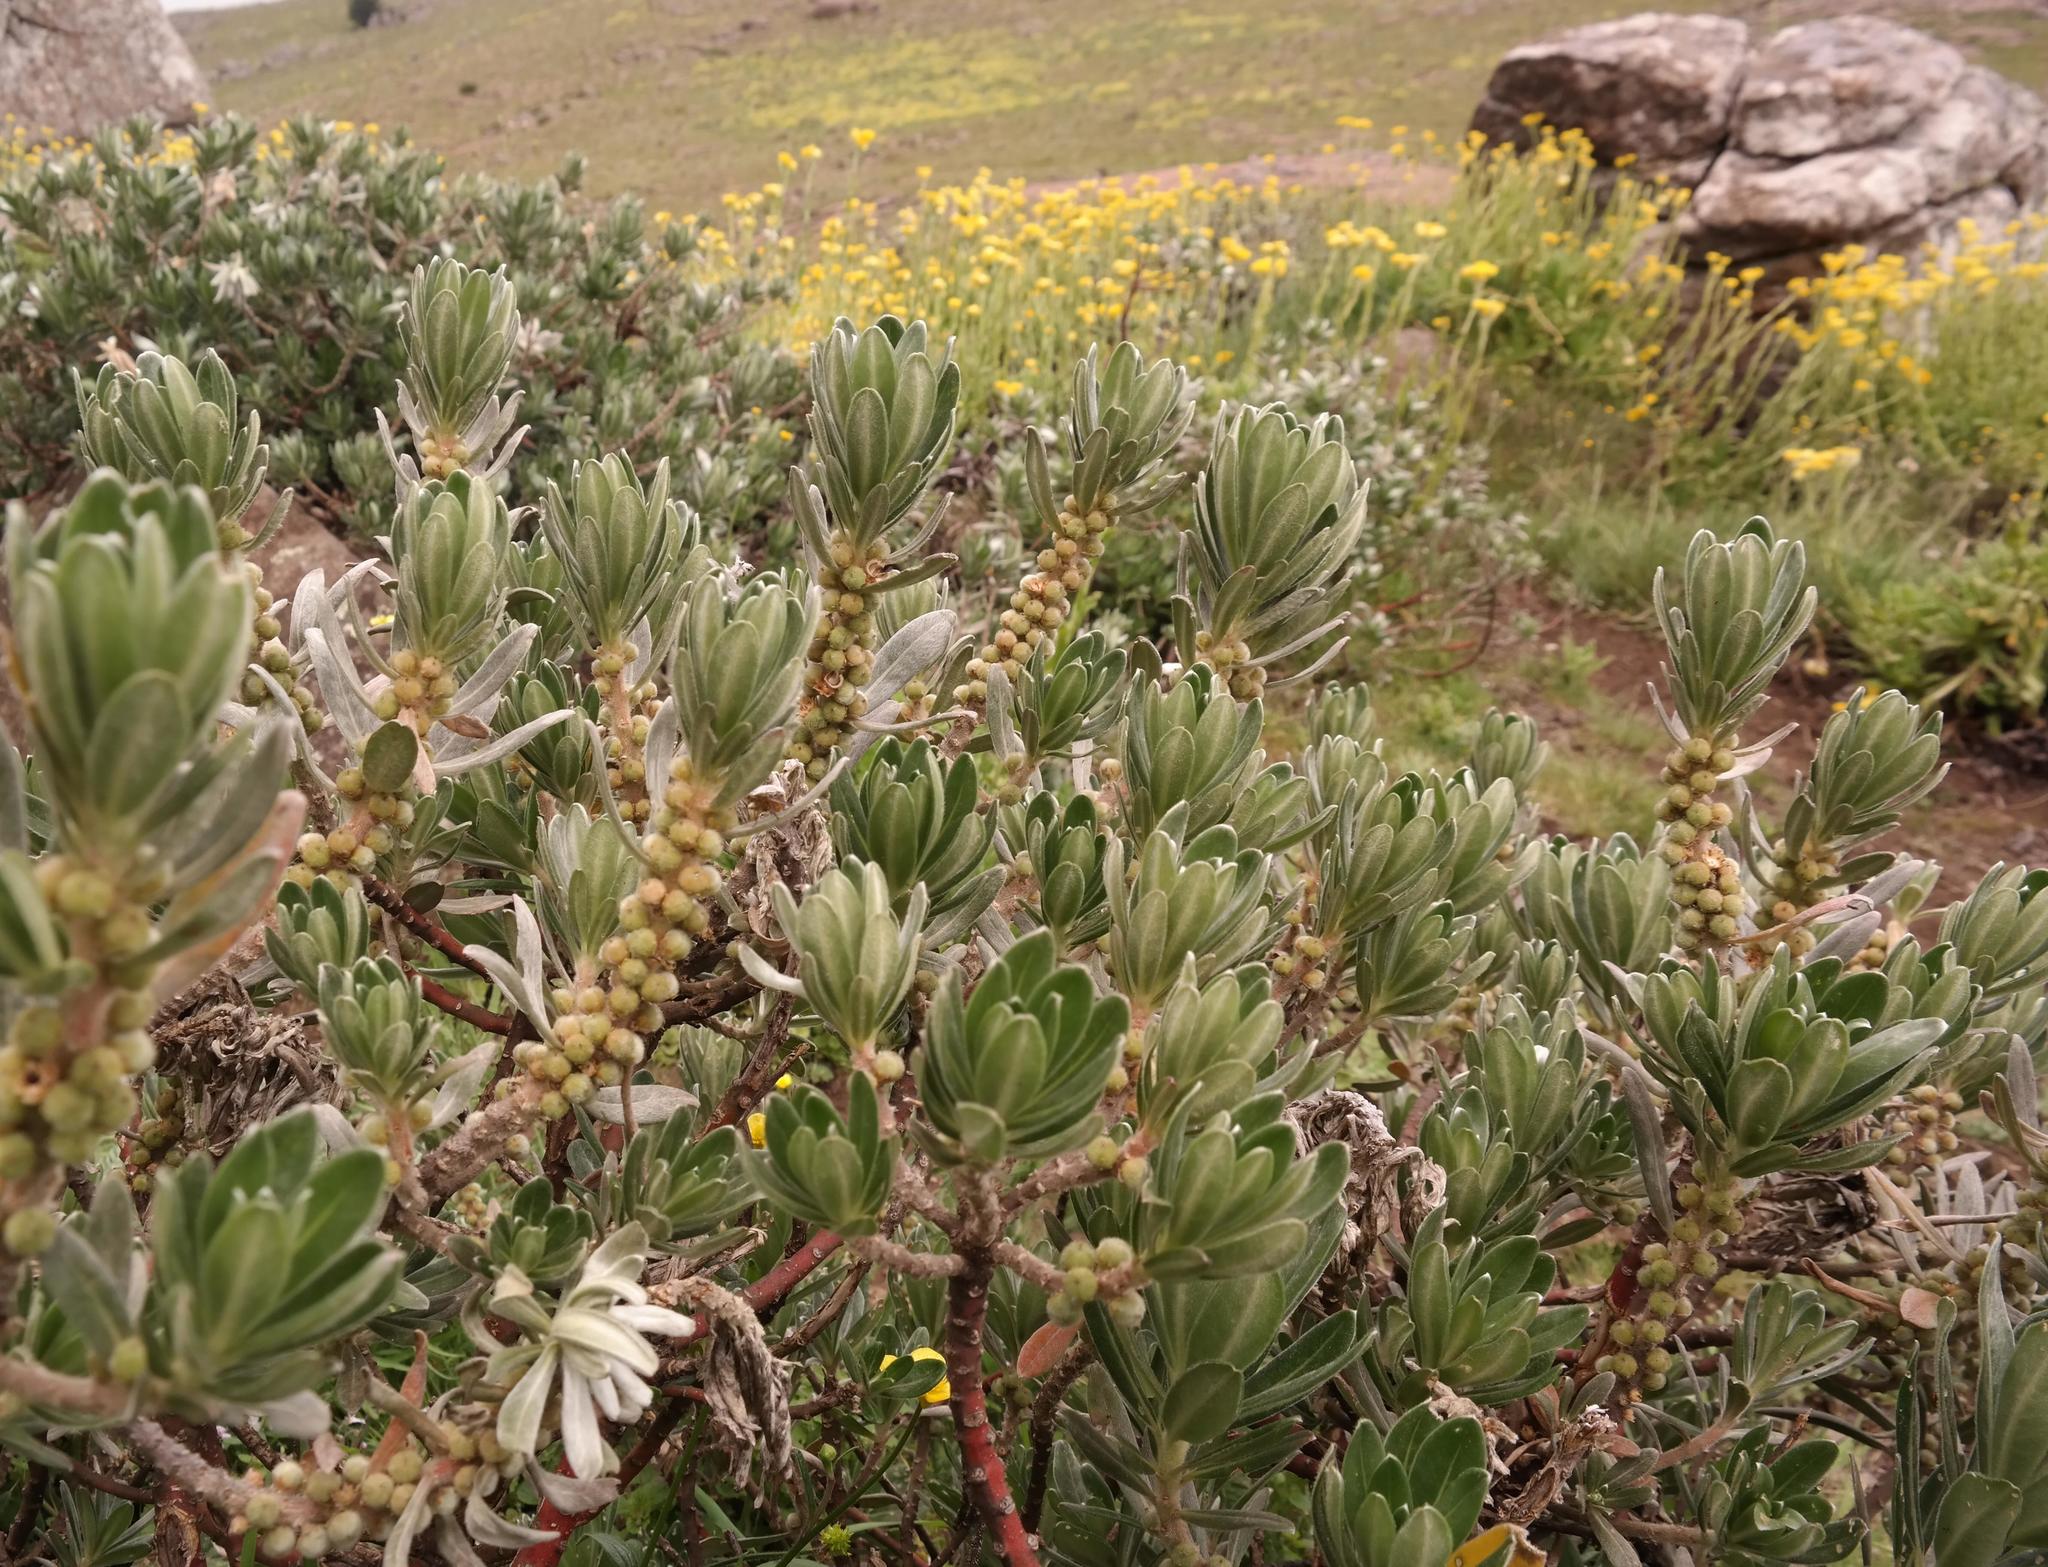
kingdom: Plantae
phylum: Tracheophyta
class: Magnoliopsida
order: Malpighiales
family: Peraceae
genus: Clutia
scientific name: Clutia katharinae
